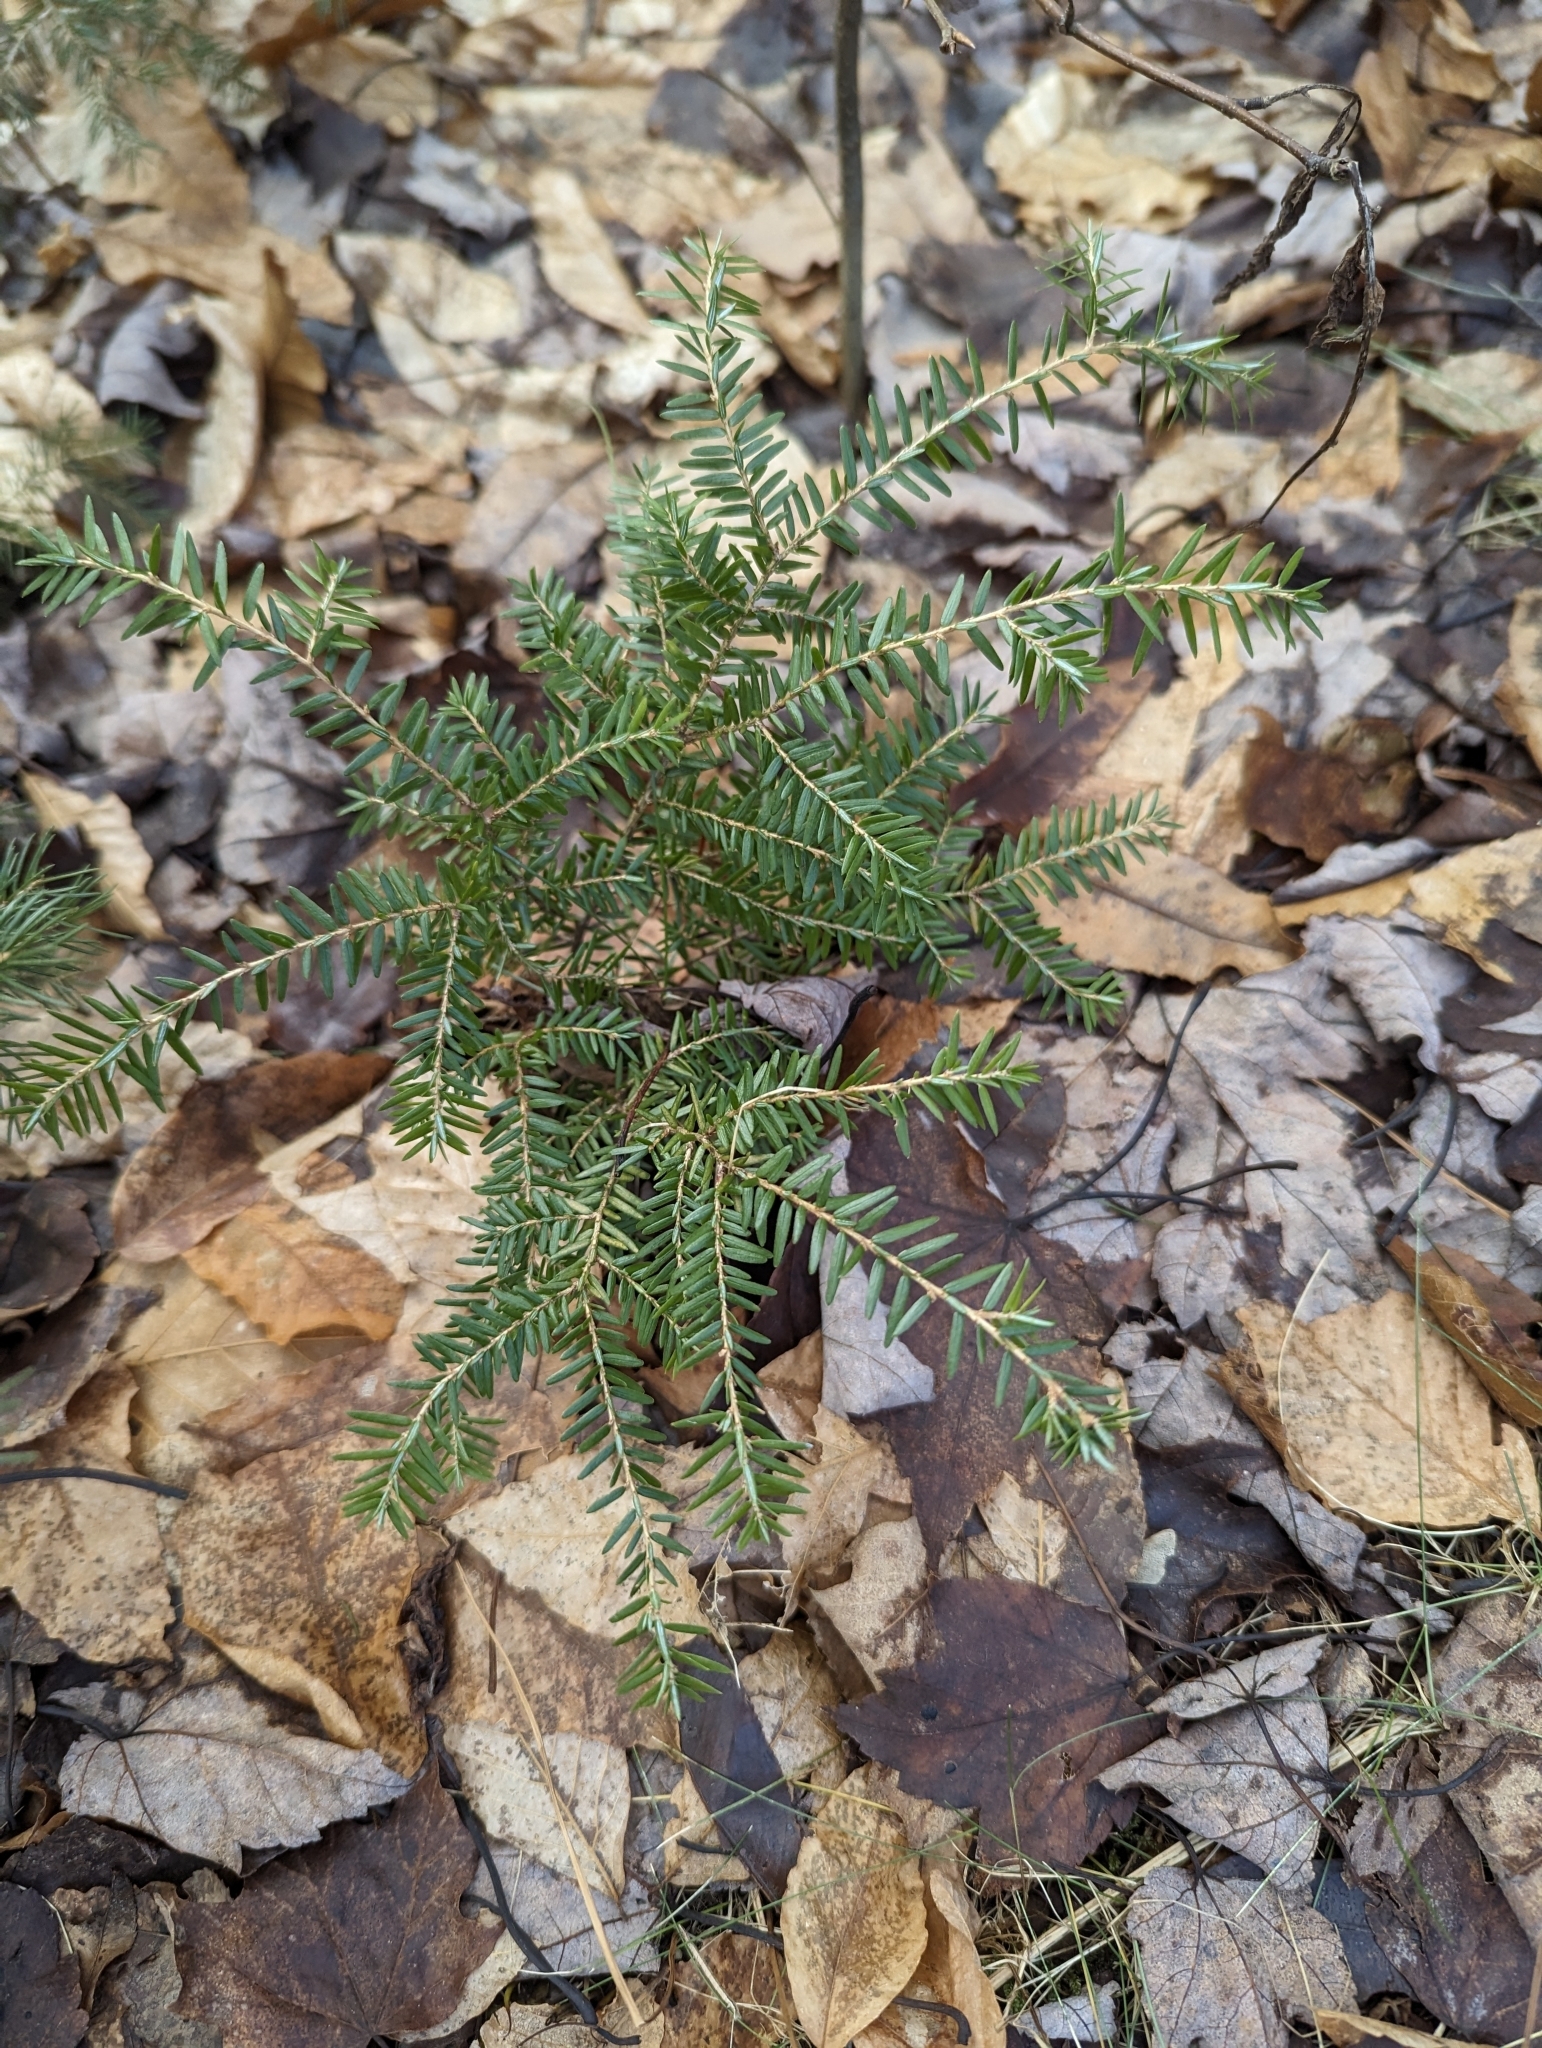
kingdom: Plantae
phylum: Tracheophyta
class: Pinopsida
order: Pinales
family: Pinaceae
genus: Tsuga
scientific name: Tsuga canadensis
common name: Eastern hemlock
